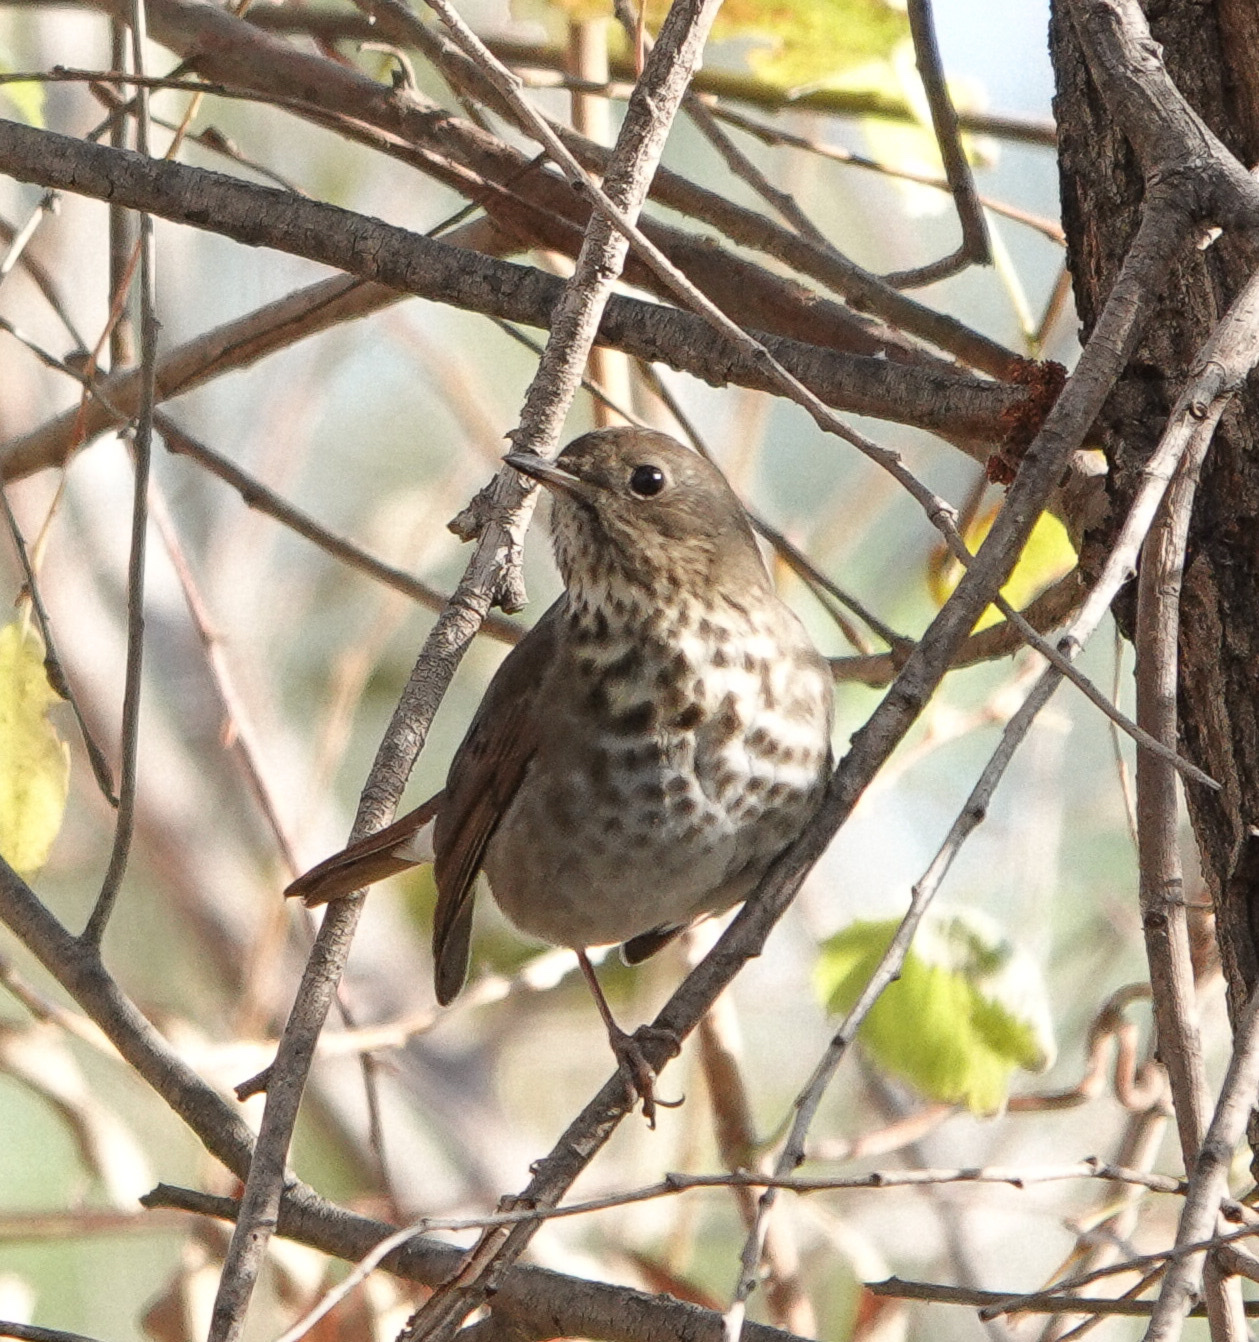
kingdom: Animalia
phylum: Chordata
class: Aves
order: Passeriformes
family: Turdidae
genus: Catharus
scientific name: Catharus guttatus
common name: Hermit thrush
